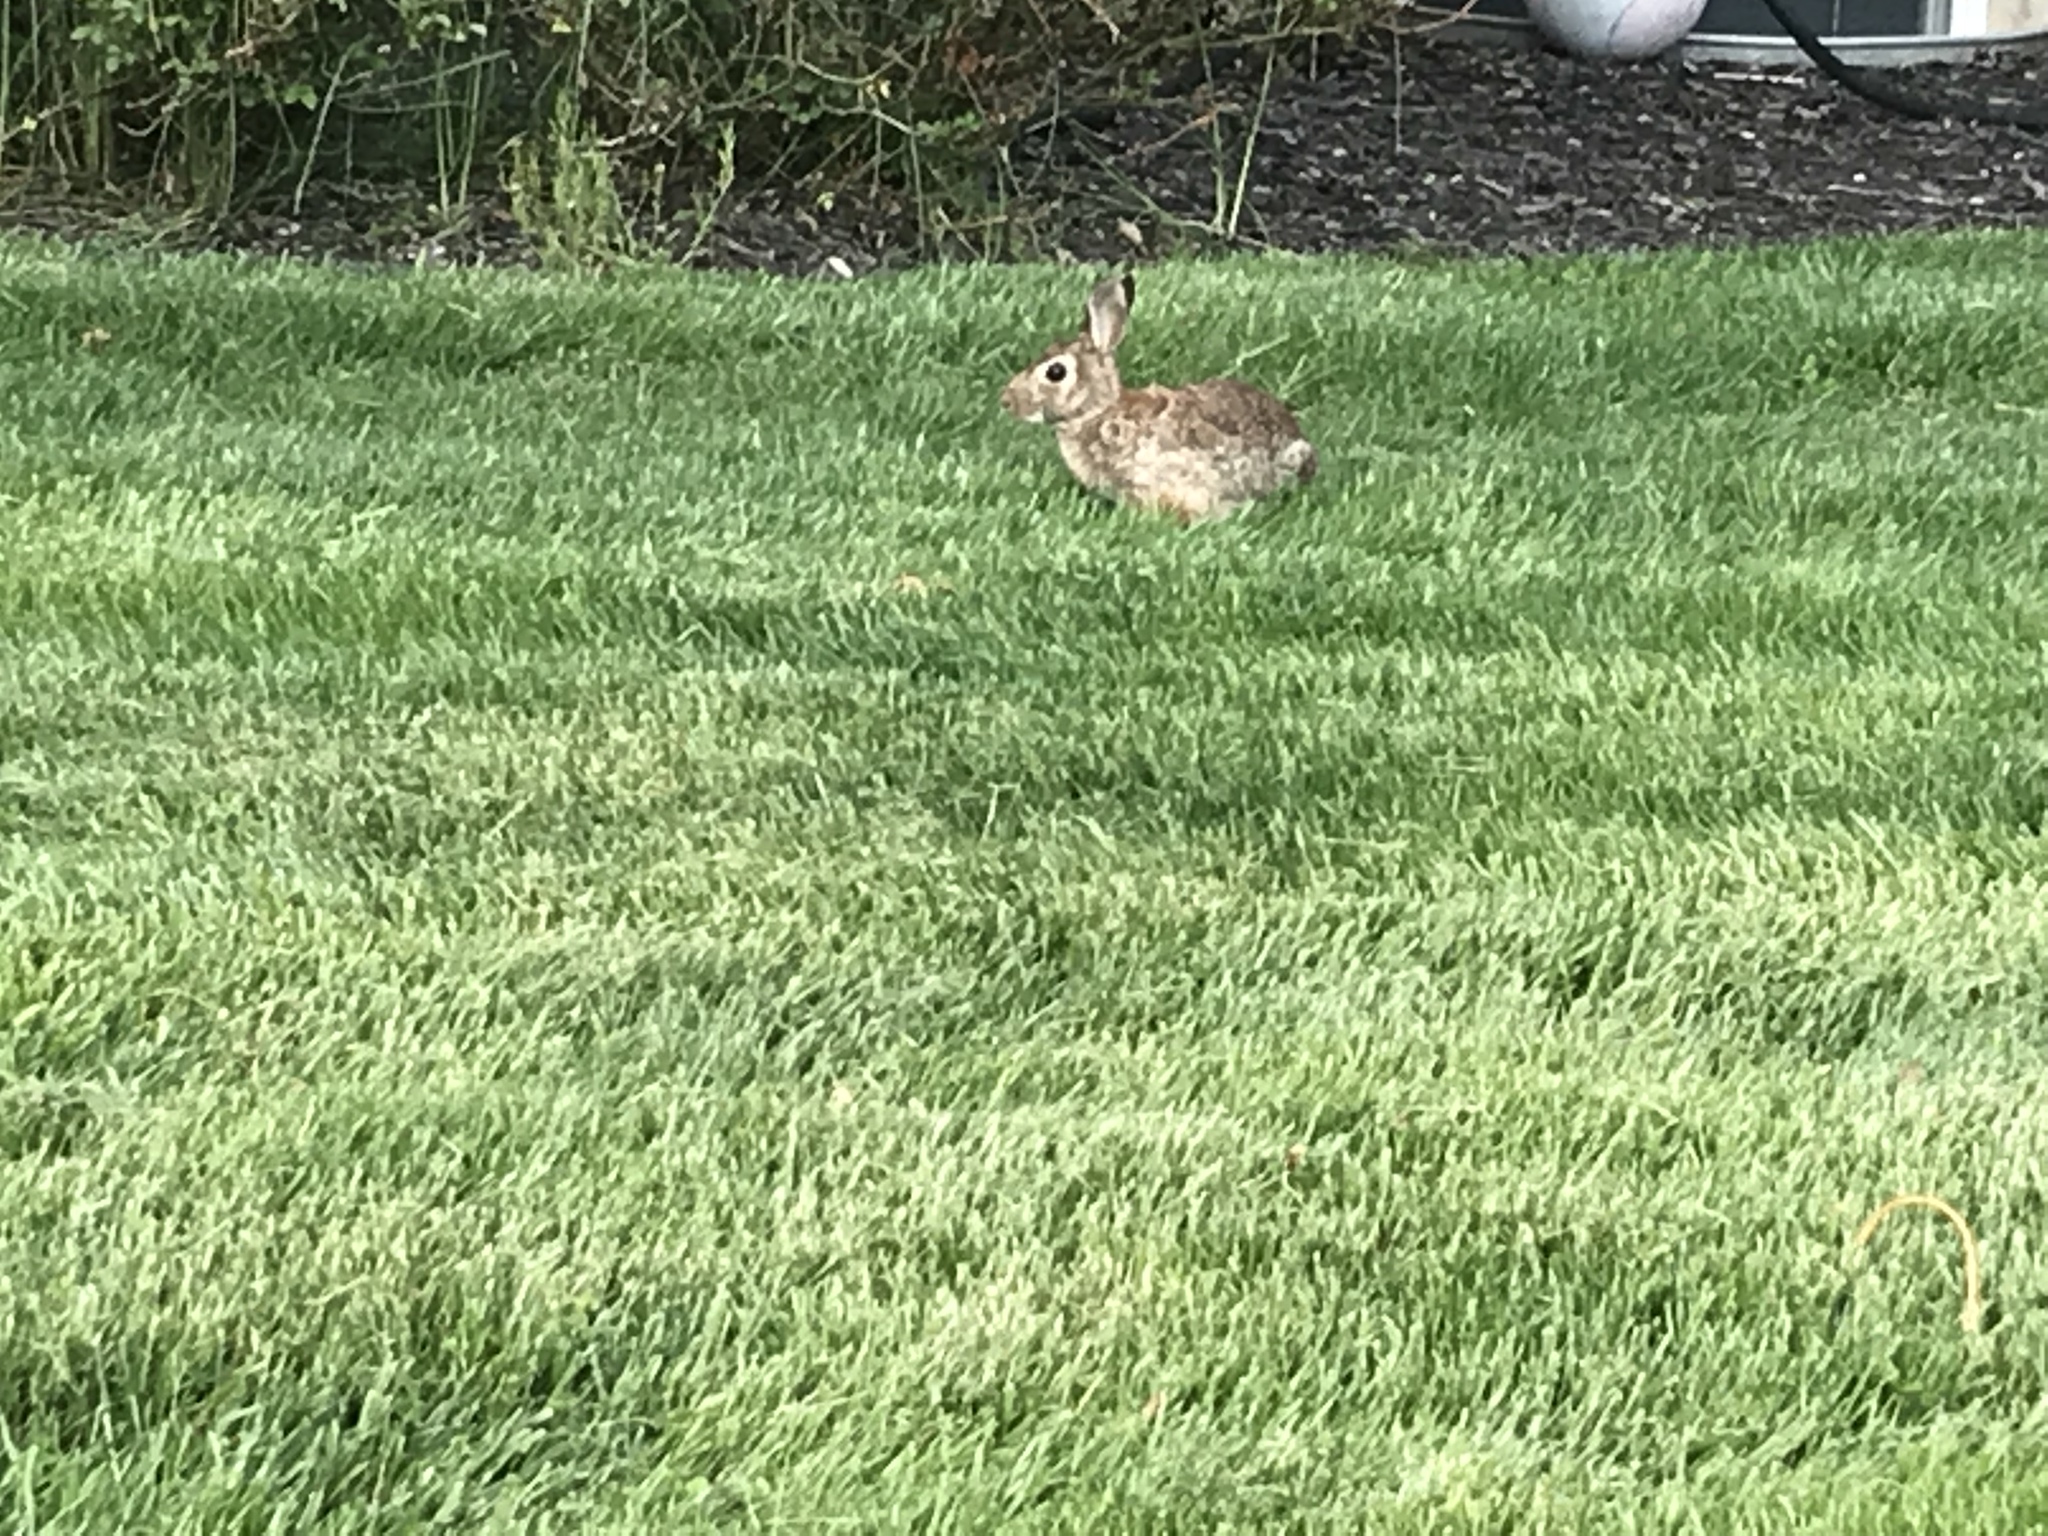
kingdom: Animalia
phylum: Chordata
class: Mammalia
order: Lagomorpha
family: Leporidae
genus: Sylvilagus
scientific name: Sylvilagus floridanus
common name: Eastern cottontail
